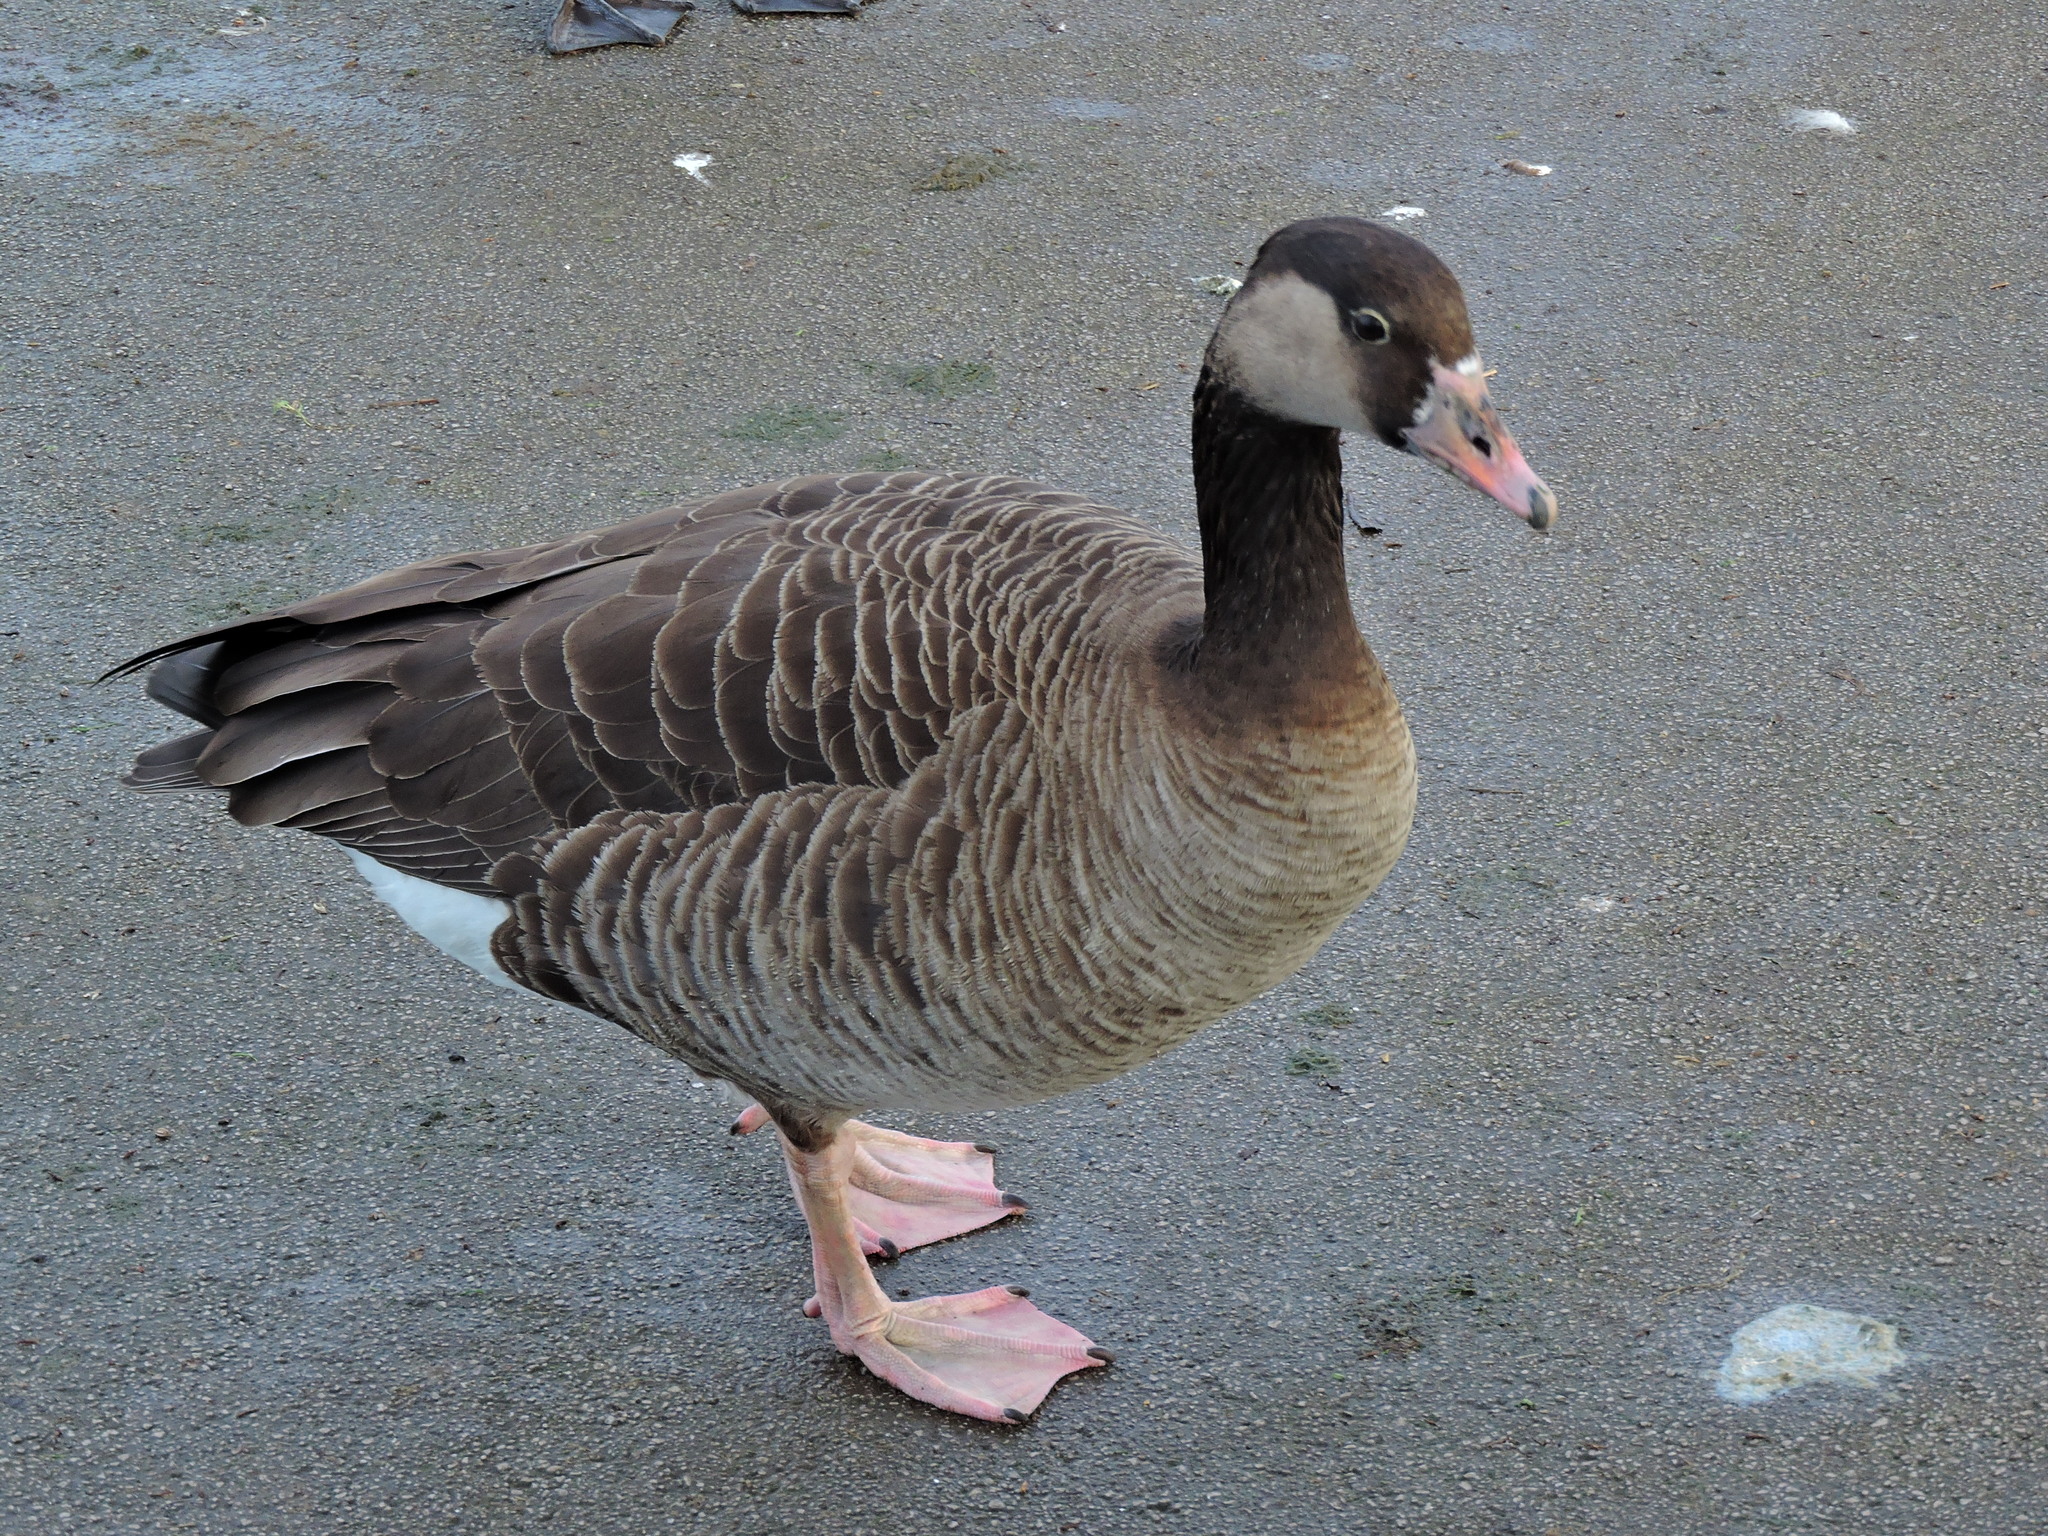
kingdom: Animalia
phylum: Chordata
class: Aves
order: Anseriformes
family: Anatidae
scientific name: Anatidae
